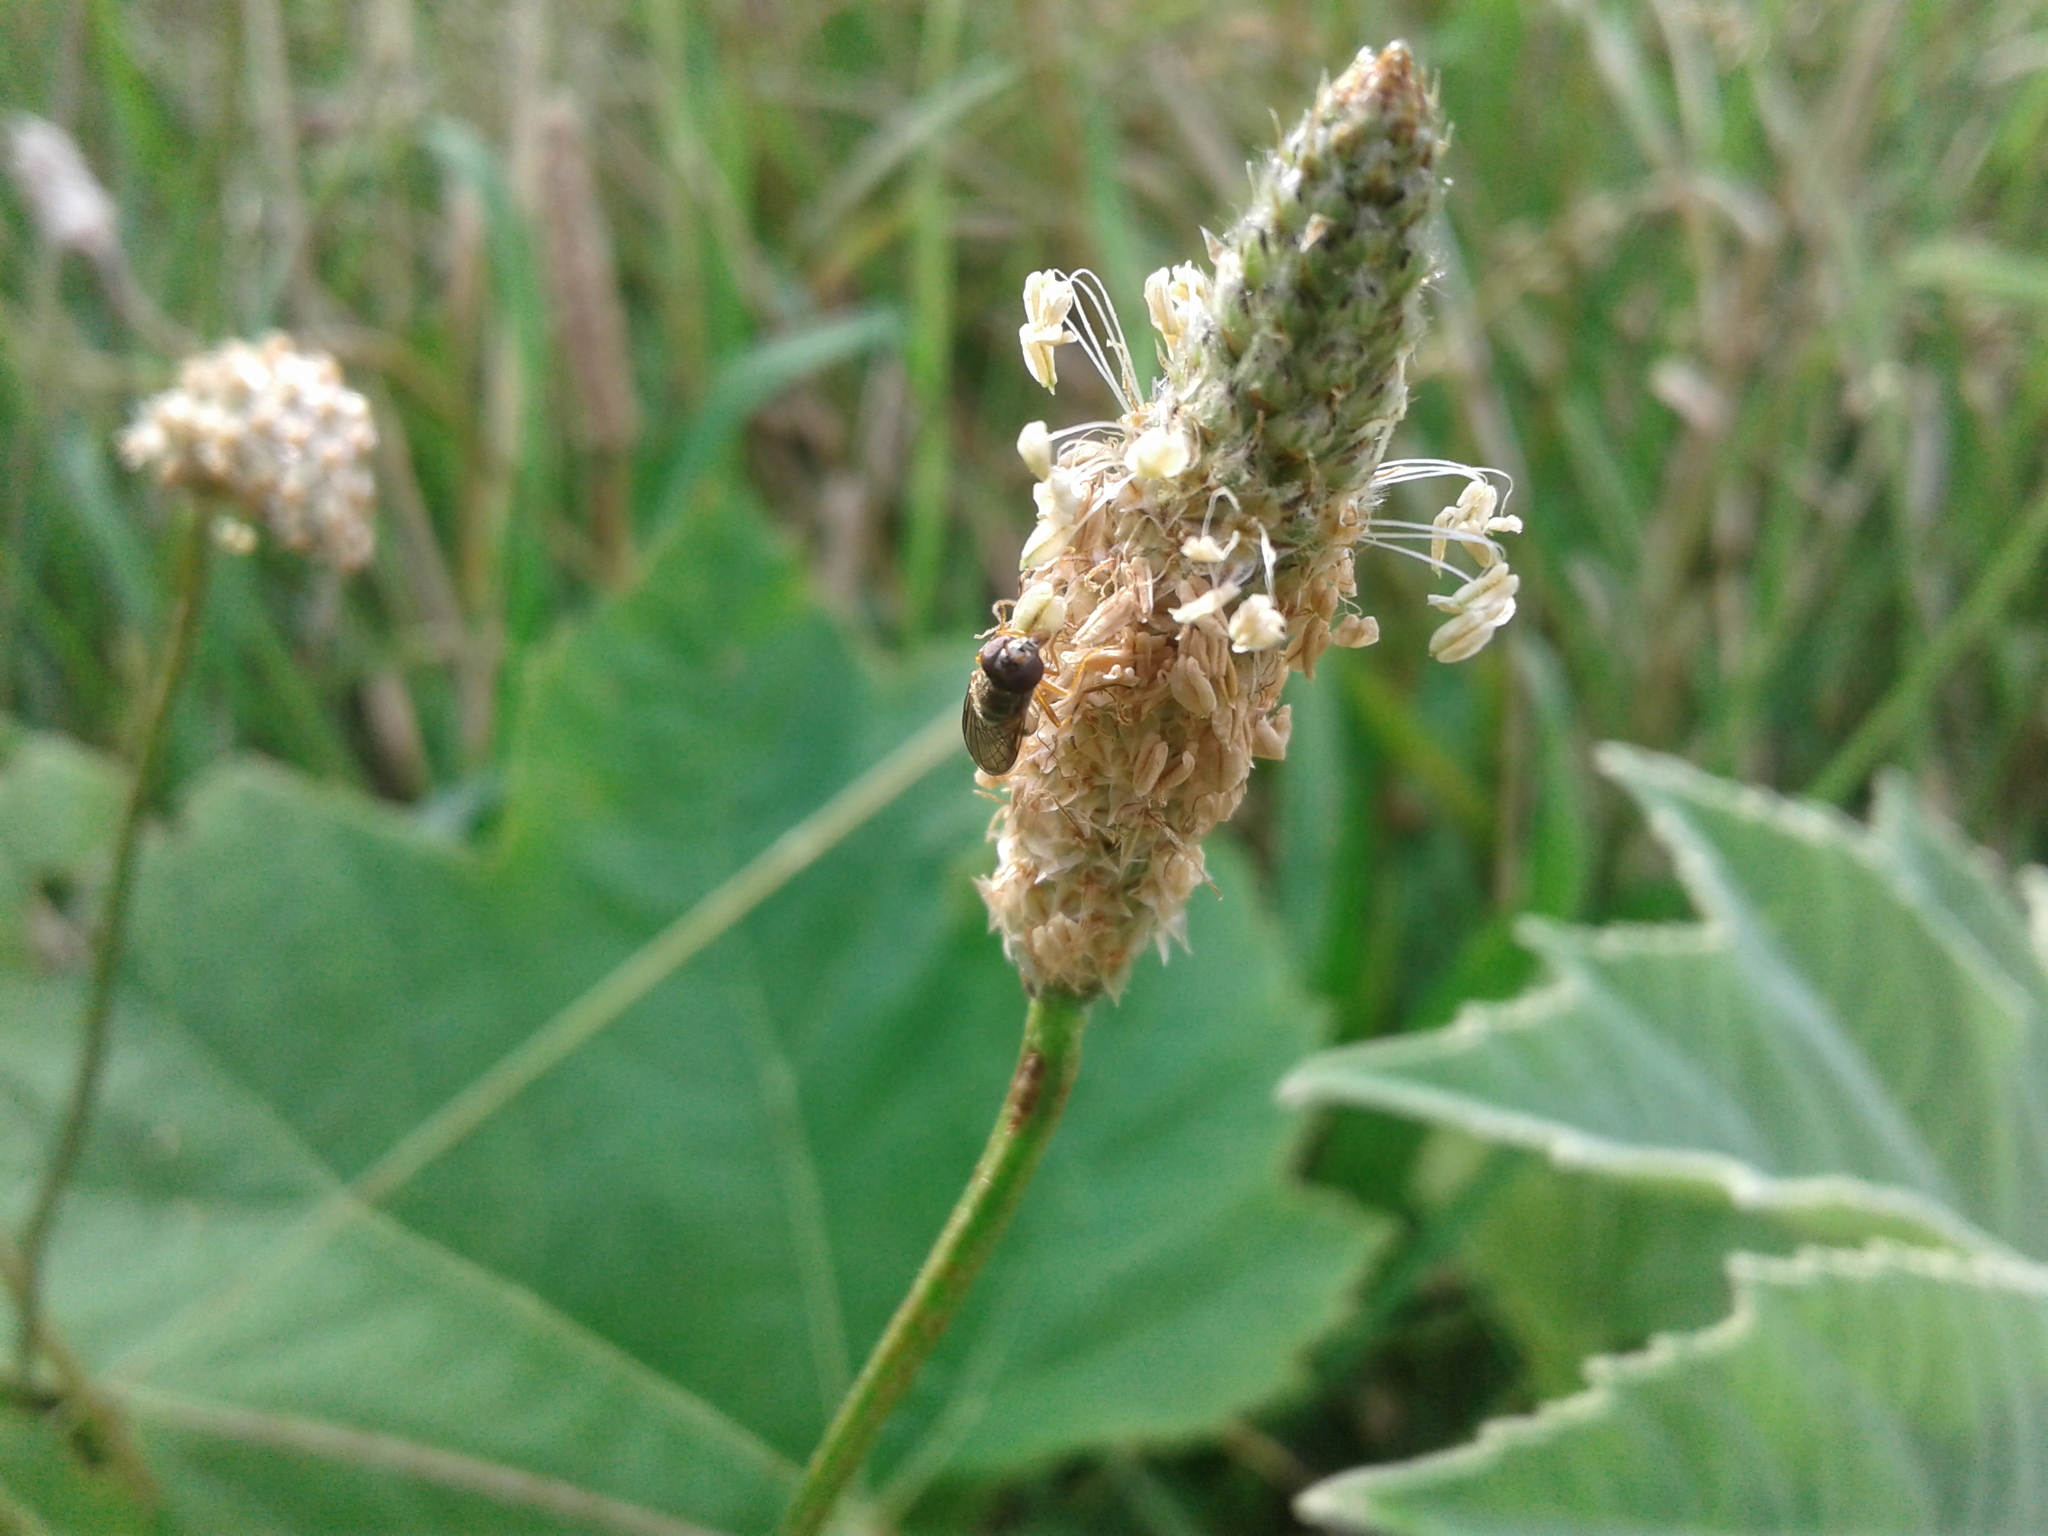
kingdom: Animalia
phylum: Arthropoda
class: Insecta
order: Diptera
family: Syrphidae
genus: Melanostoma
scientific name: Melanostoma fasciatum
